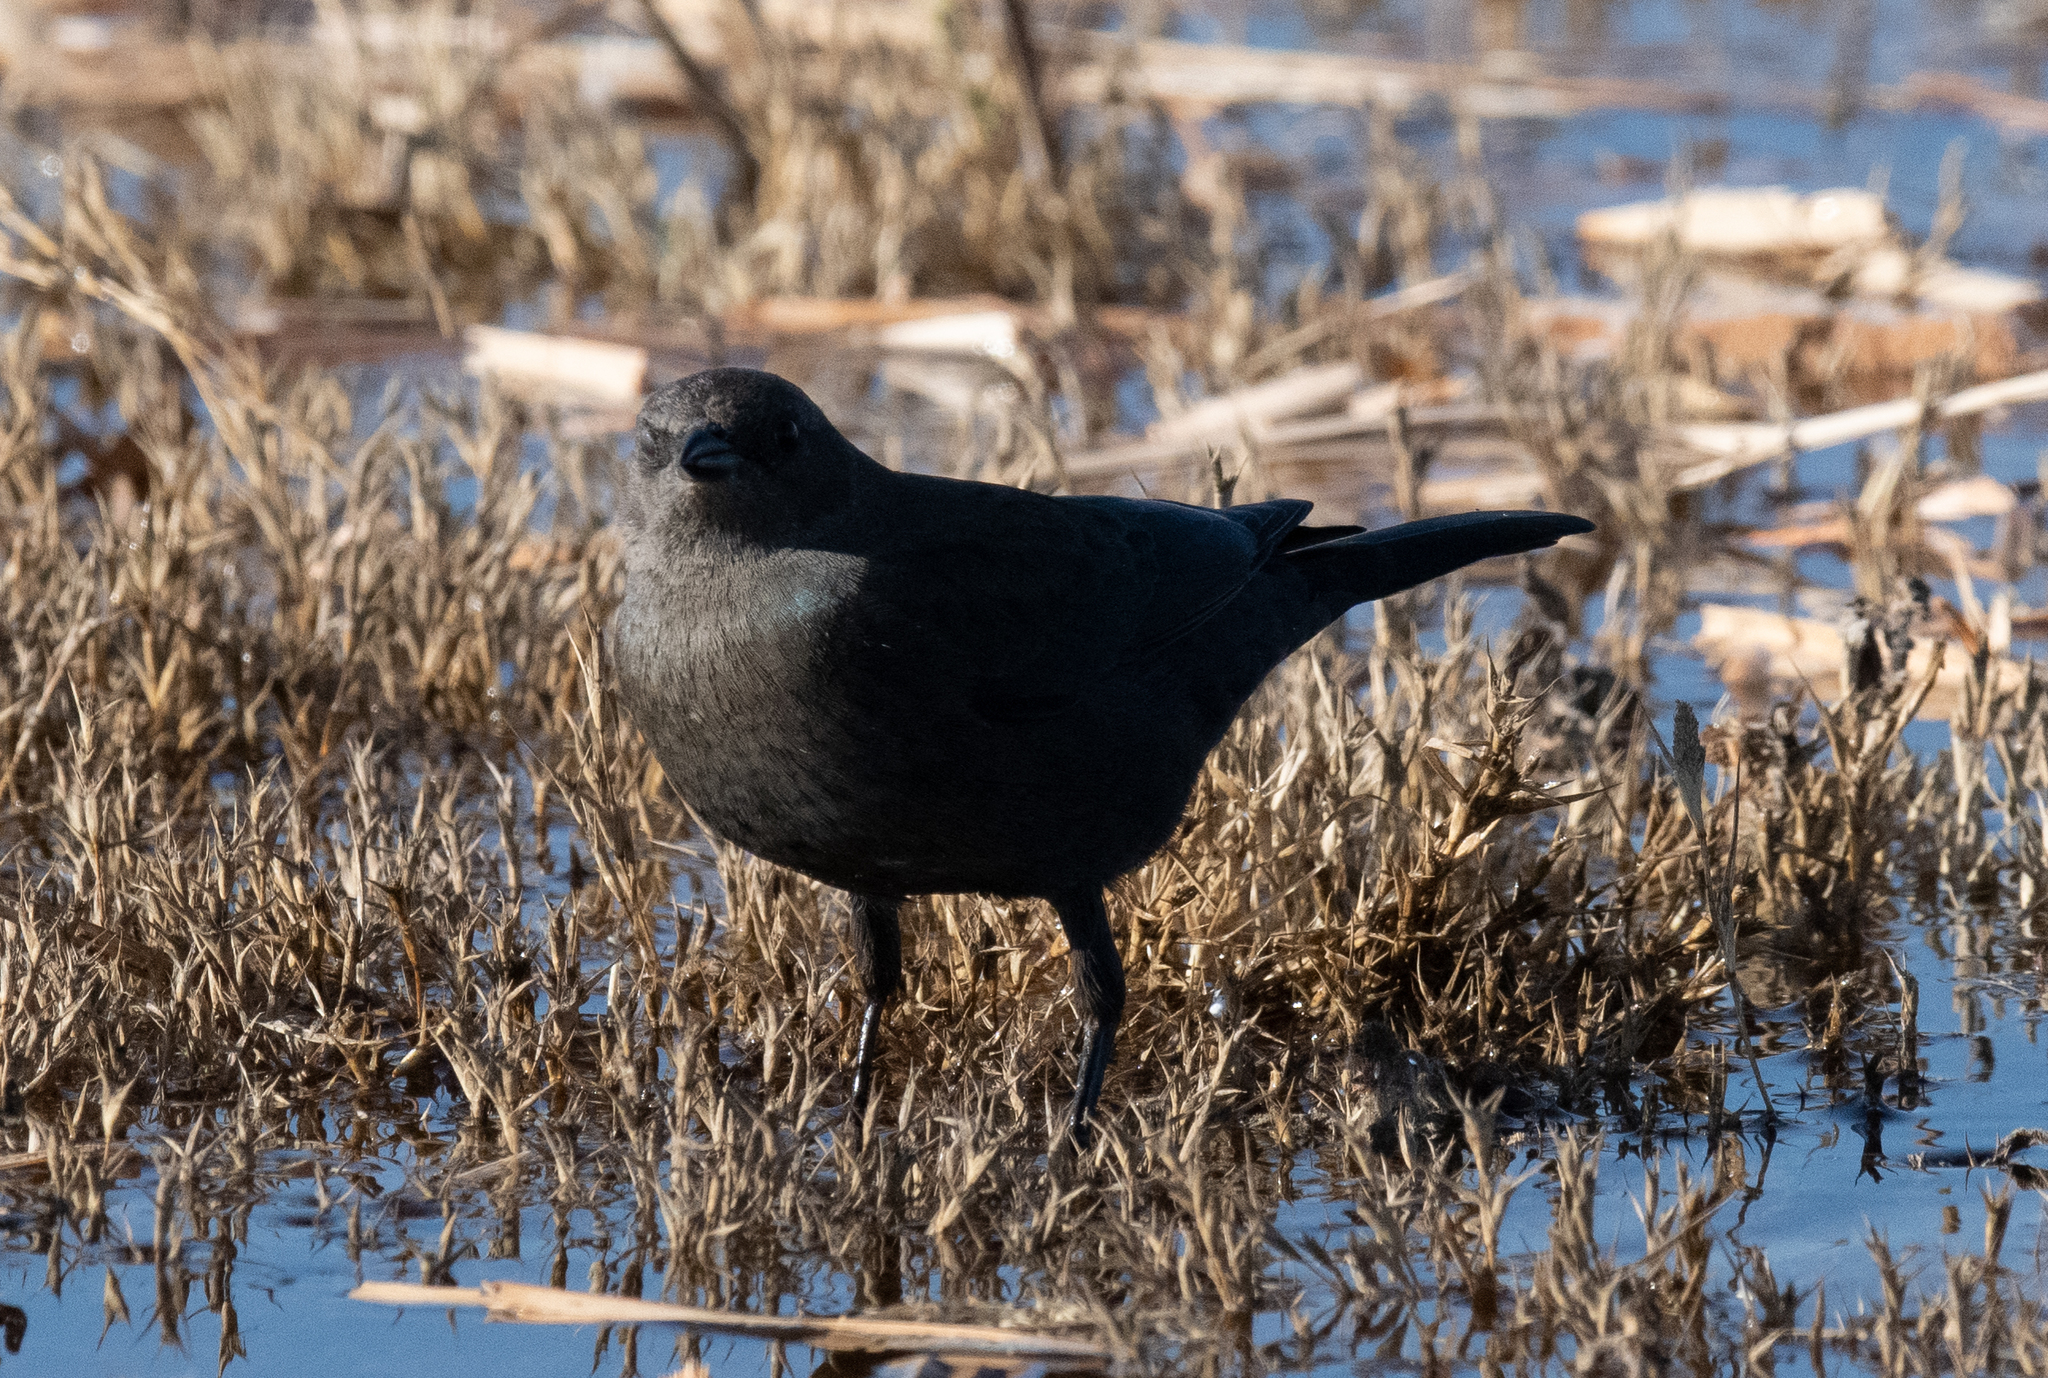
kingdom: Animalia
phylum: Chordata
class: Aves
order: Passeriformes
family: Icteridae
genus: Euphagus
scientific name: Euphagus cyanocephalus
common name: Brewer's blackbird
